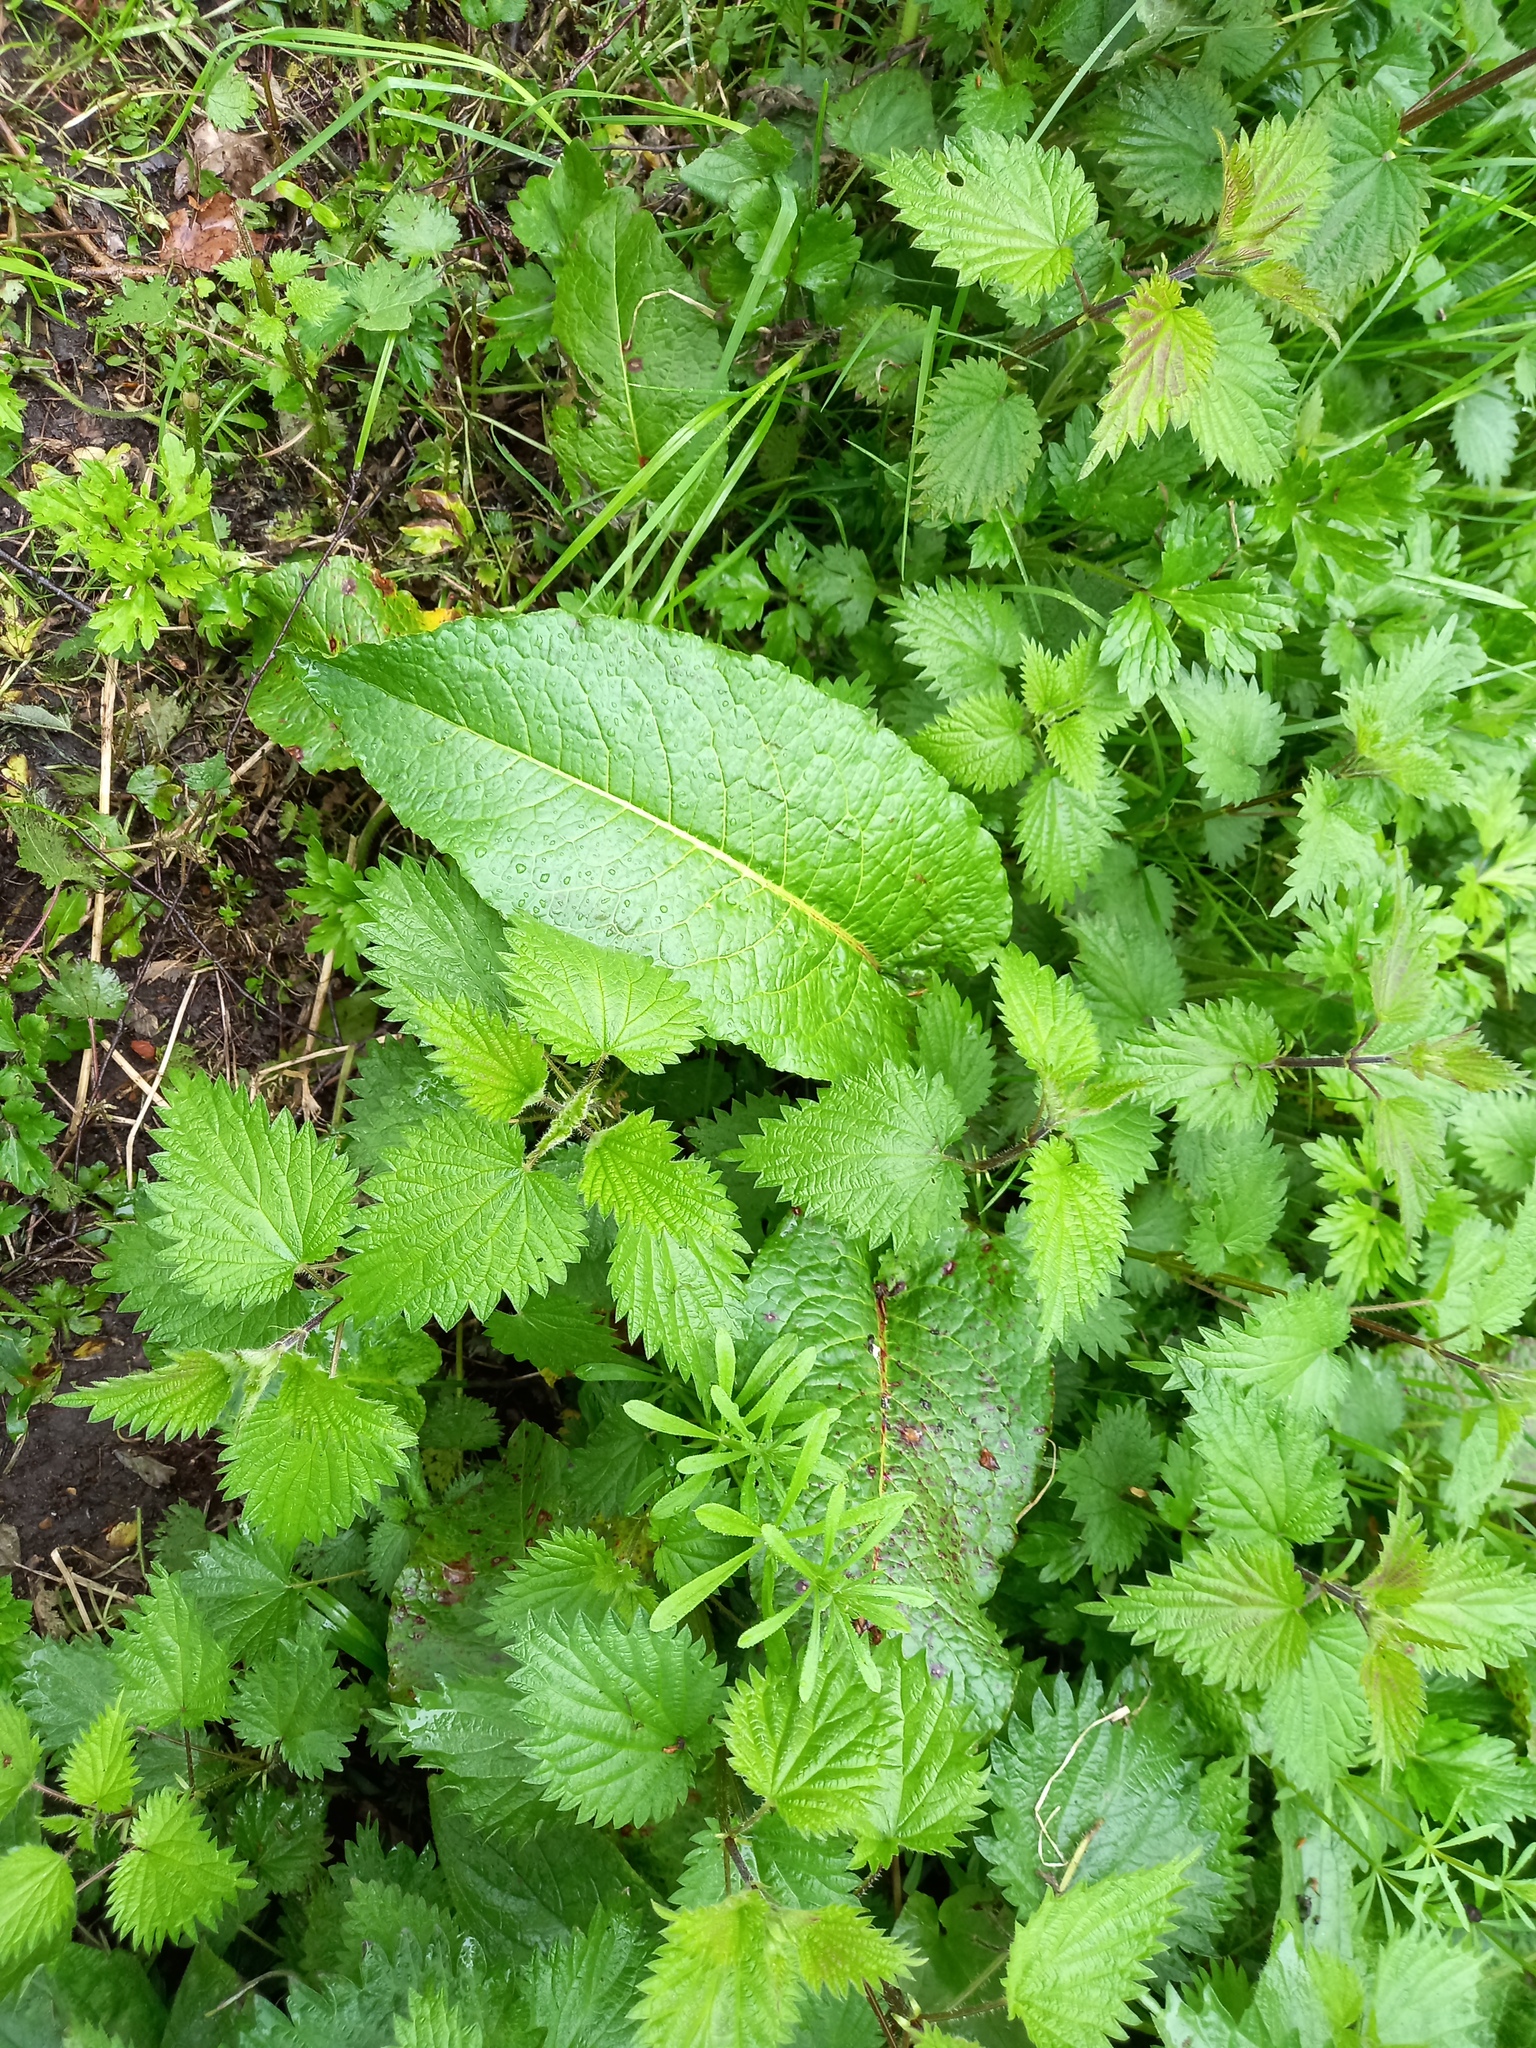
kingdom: Plantae
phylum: Tracheophyta
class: Magnoliopsida
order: Caryophyllales
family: Polygonaceae
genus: Rumex
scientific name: Rumex obtusifolius
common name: Bitter dock
